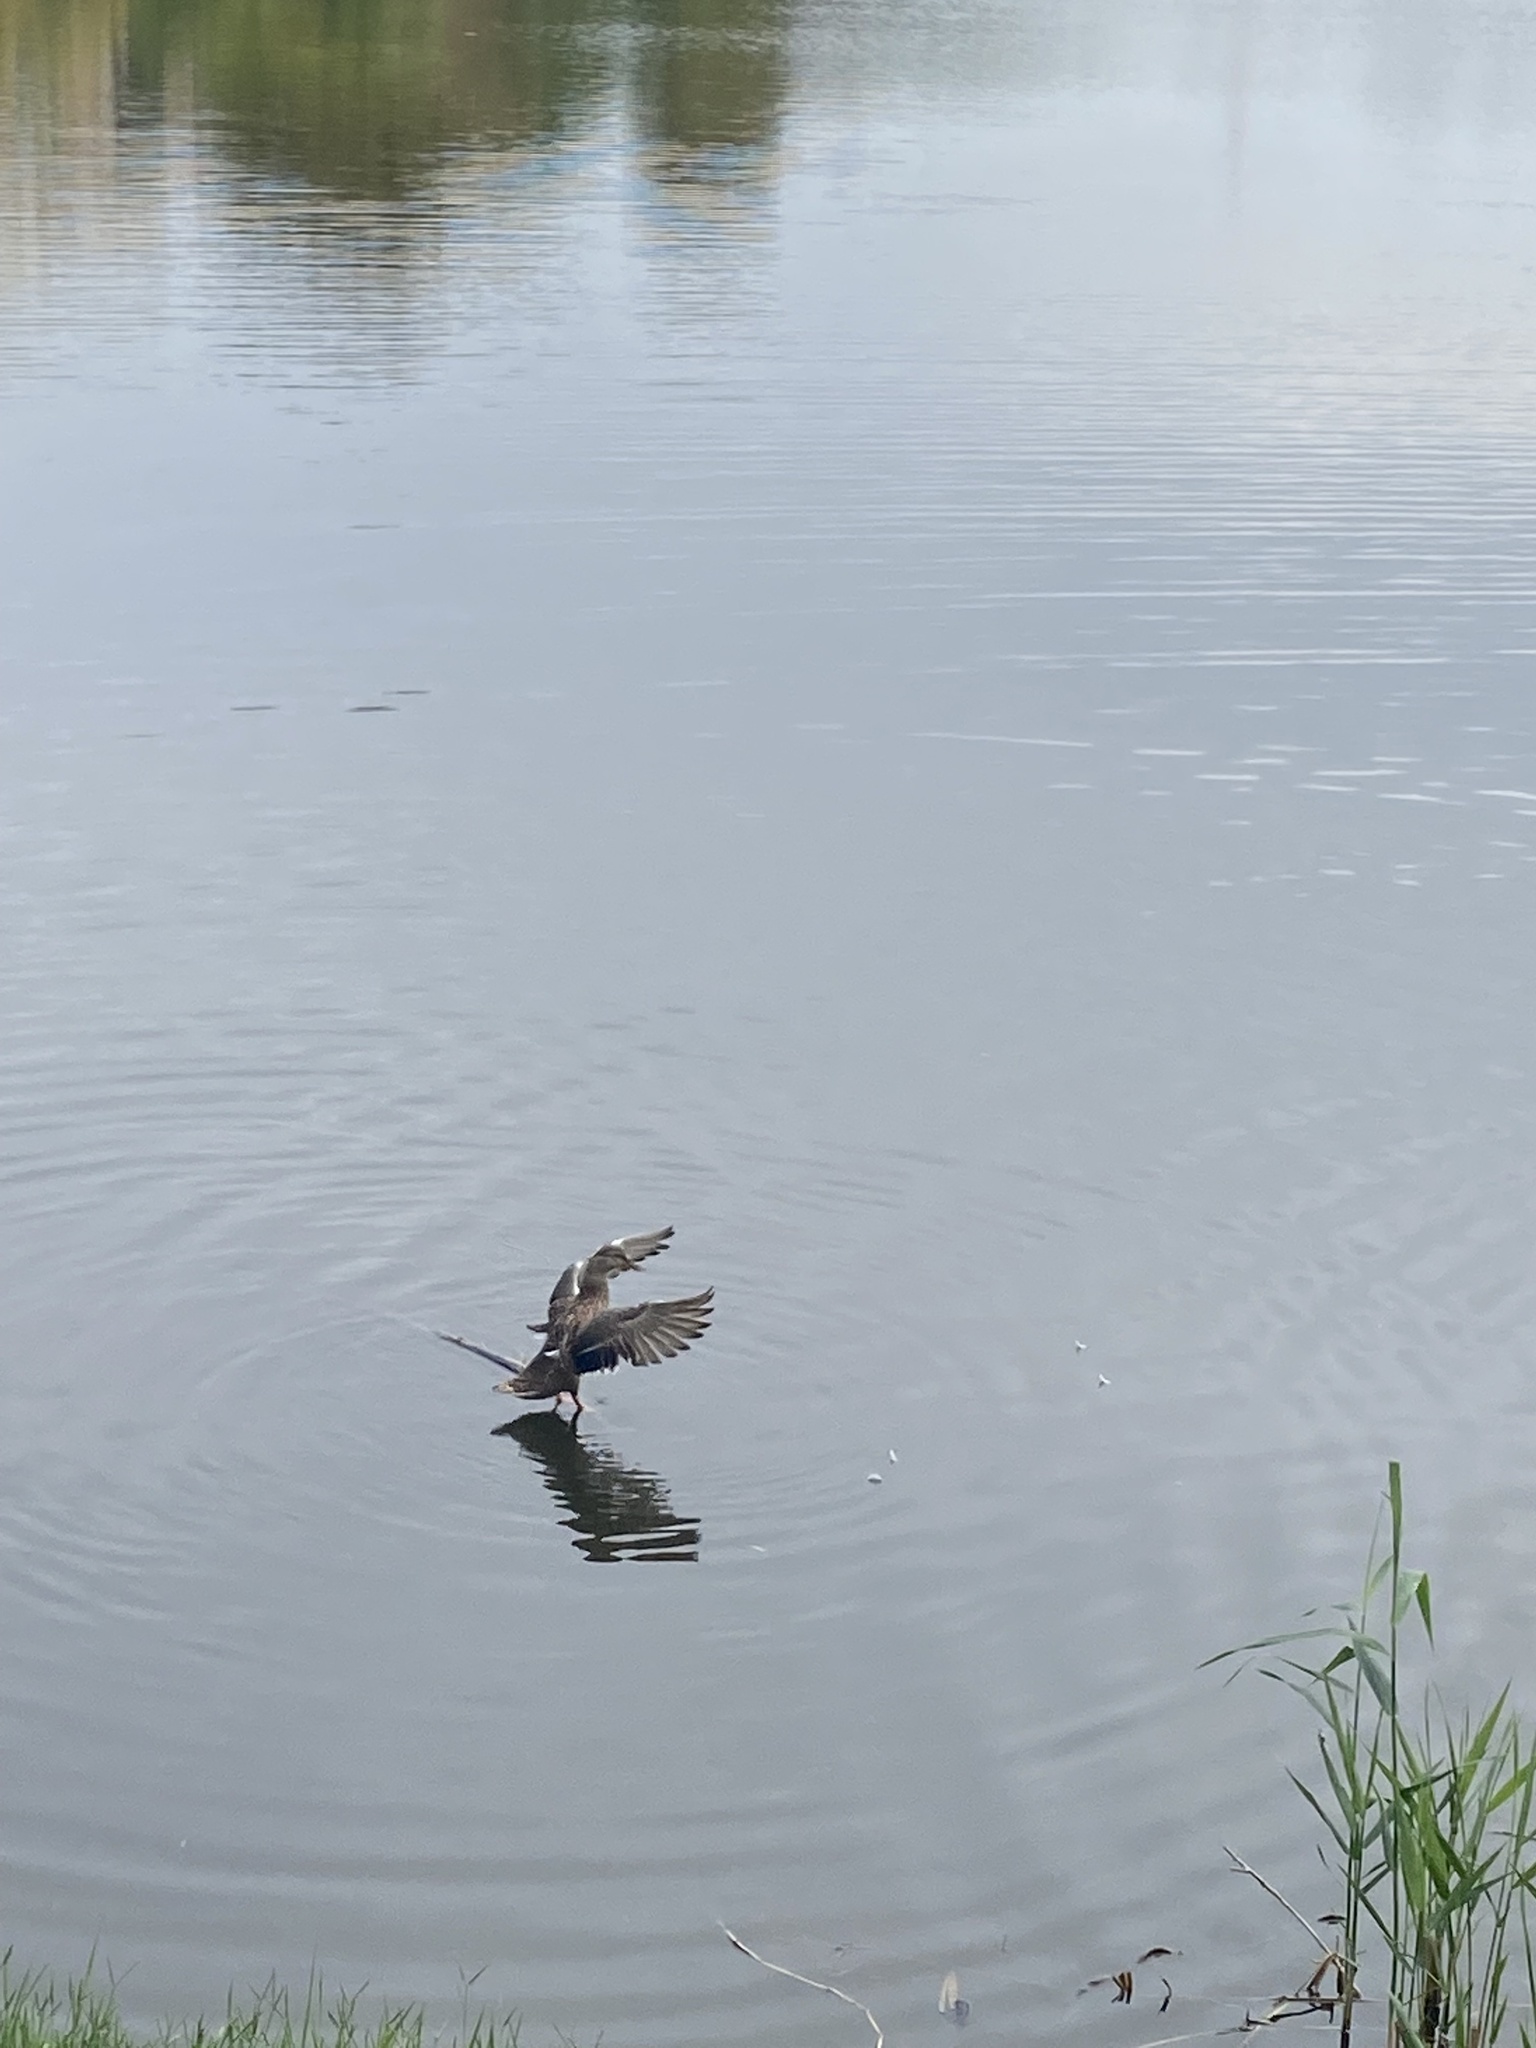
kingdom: Animalia
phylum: Chordata
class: Aves
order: Anseriformes
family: Anatidae
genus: Anas
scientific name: Anas platyrhynchos
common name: Mallard
